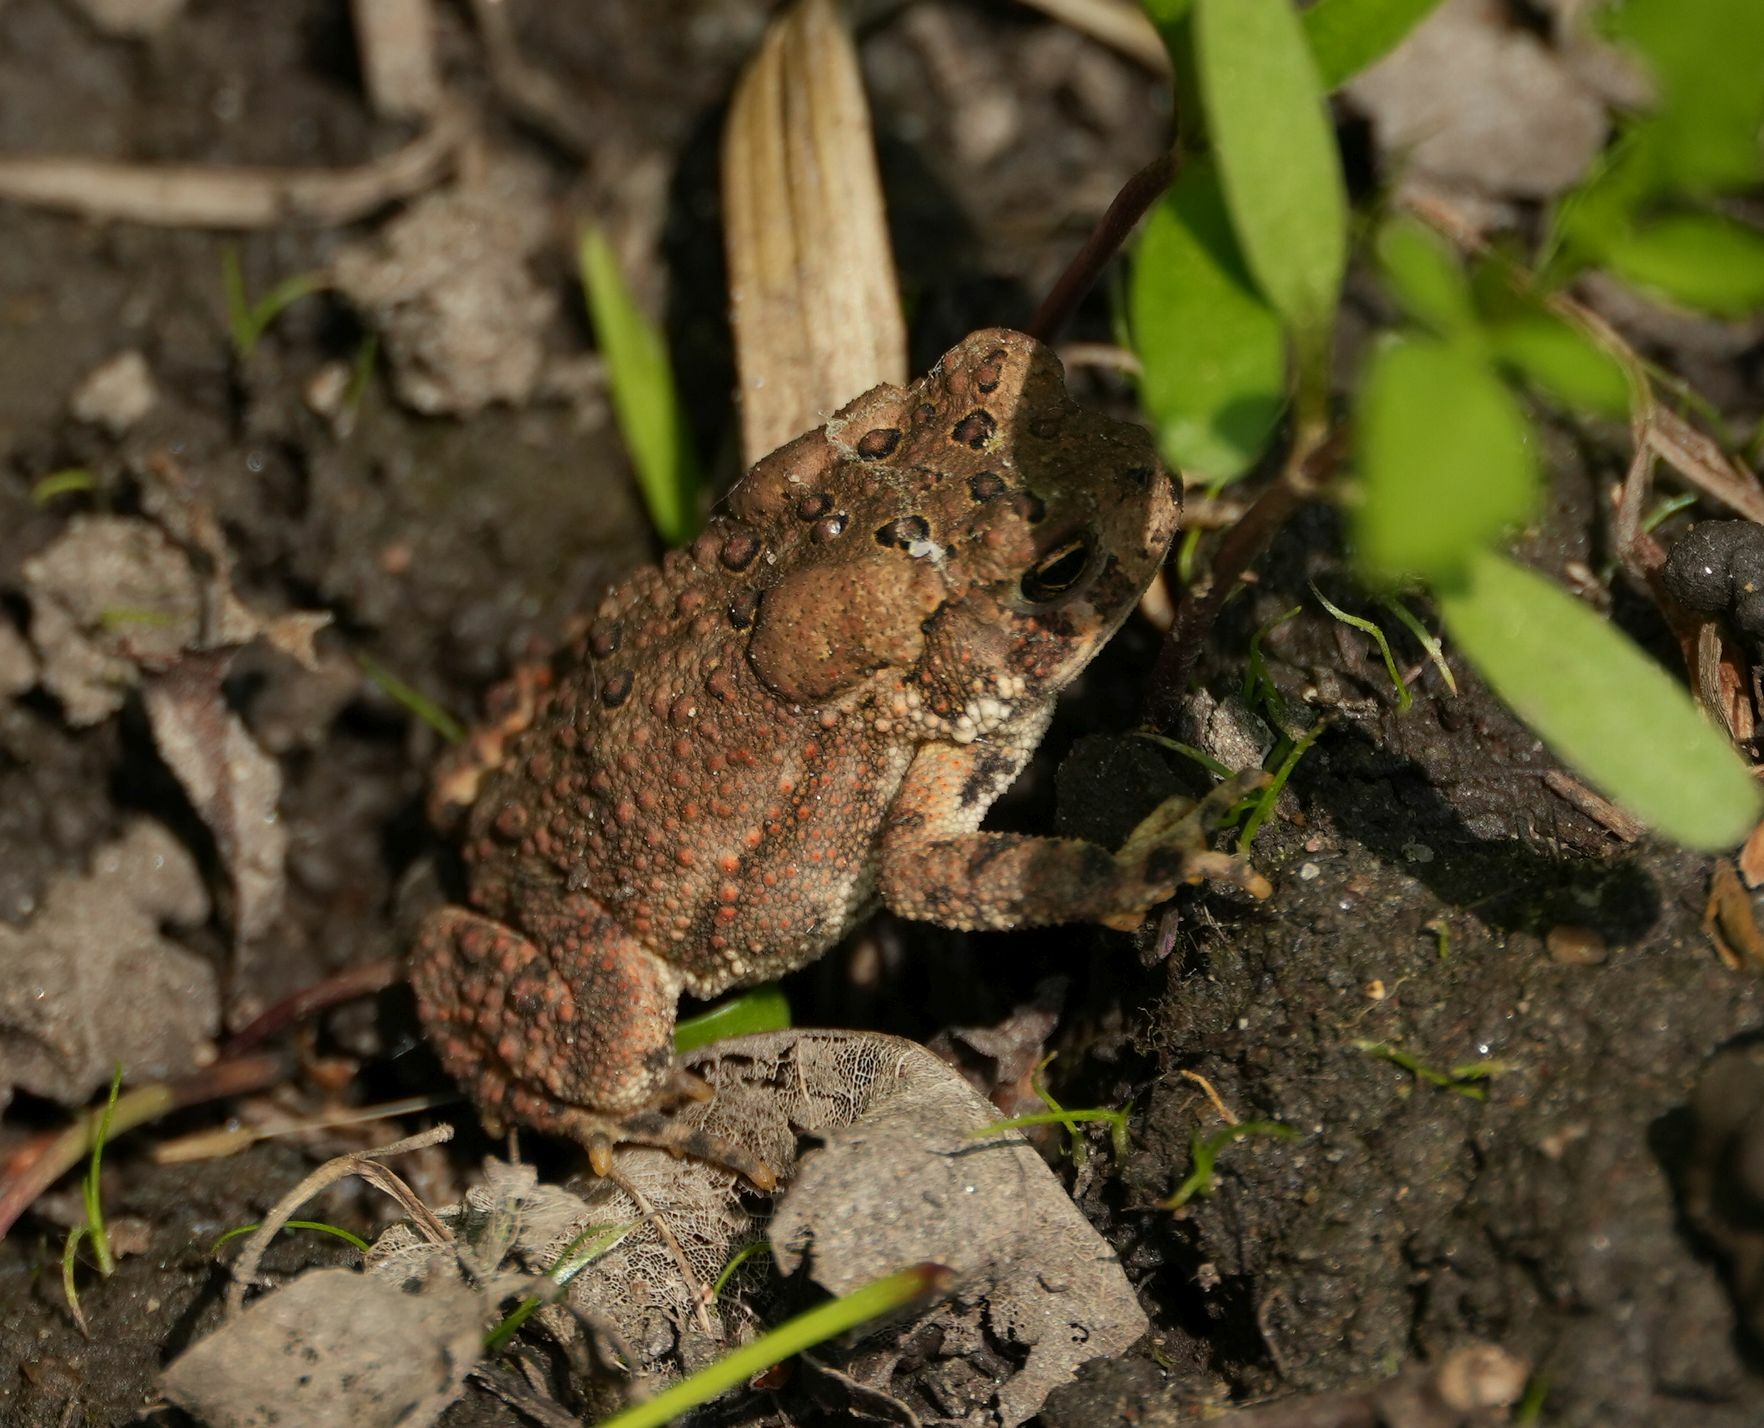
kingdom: Animalia
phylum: Chordata
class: Amphibia
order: Anura
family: Bufonidae
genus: Anaxyrus
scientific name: Anaxyrus americanus
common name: American toad
